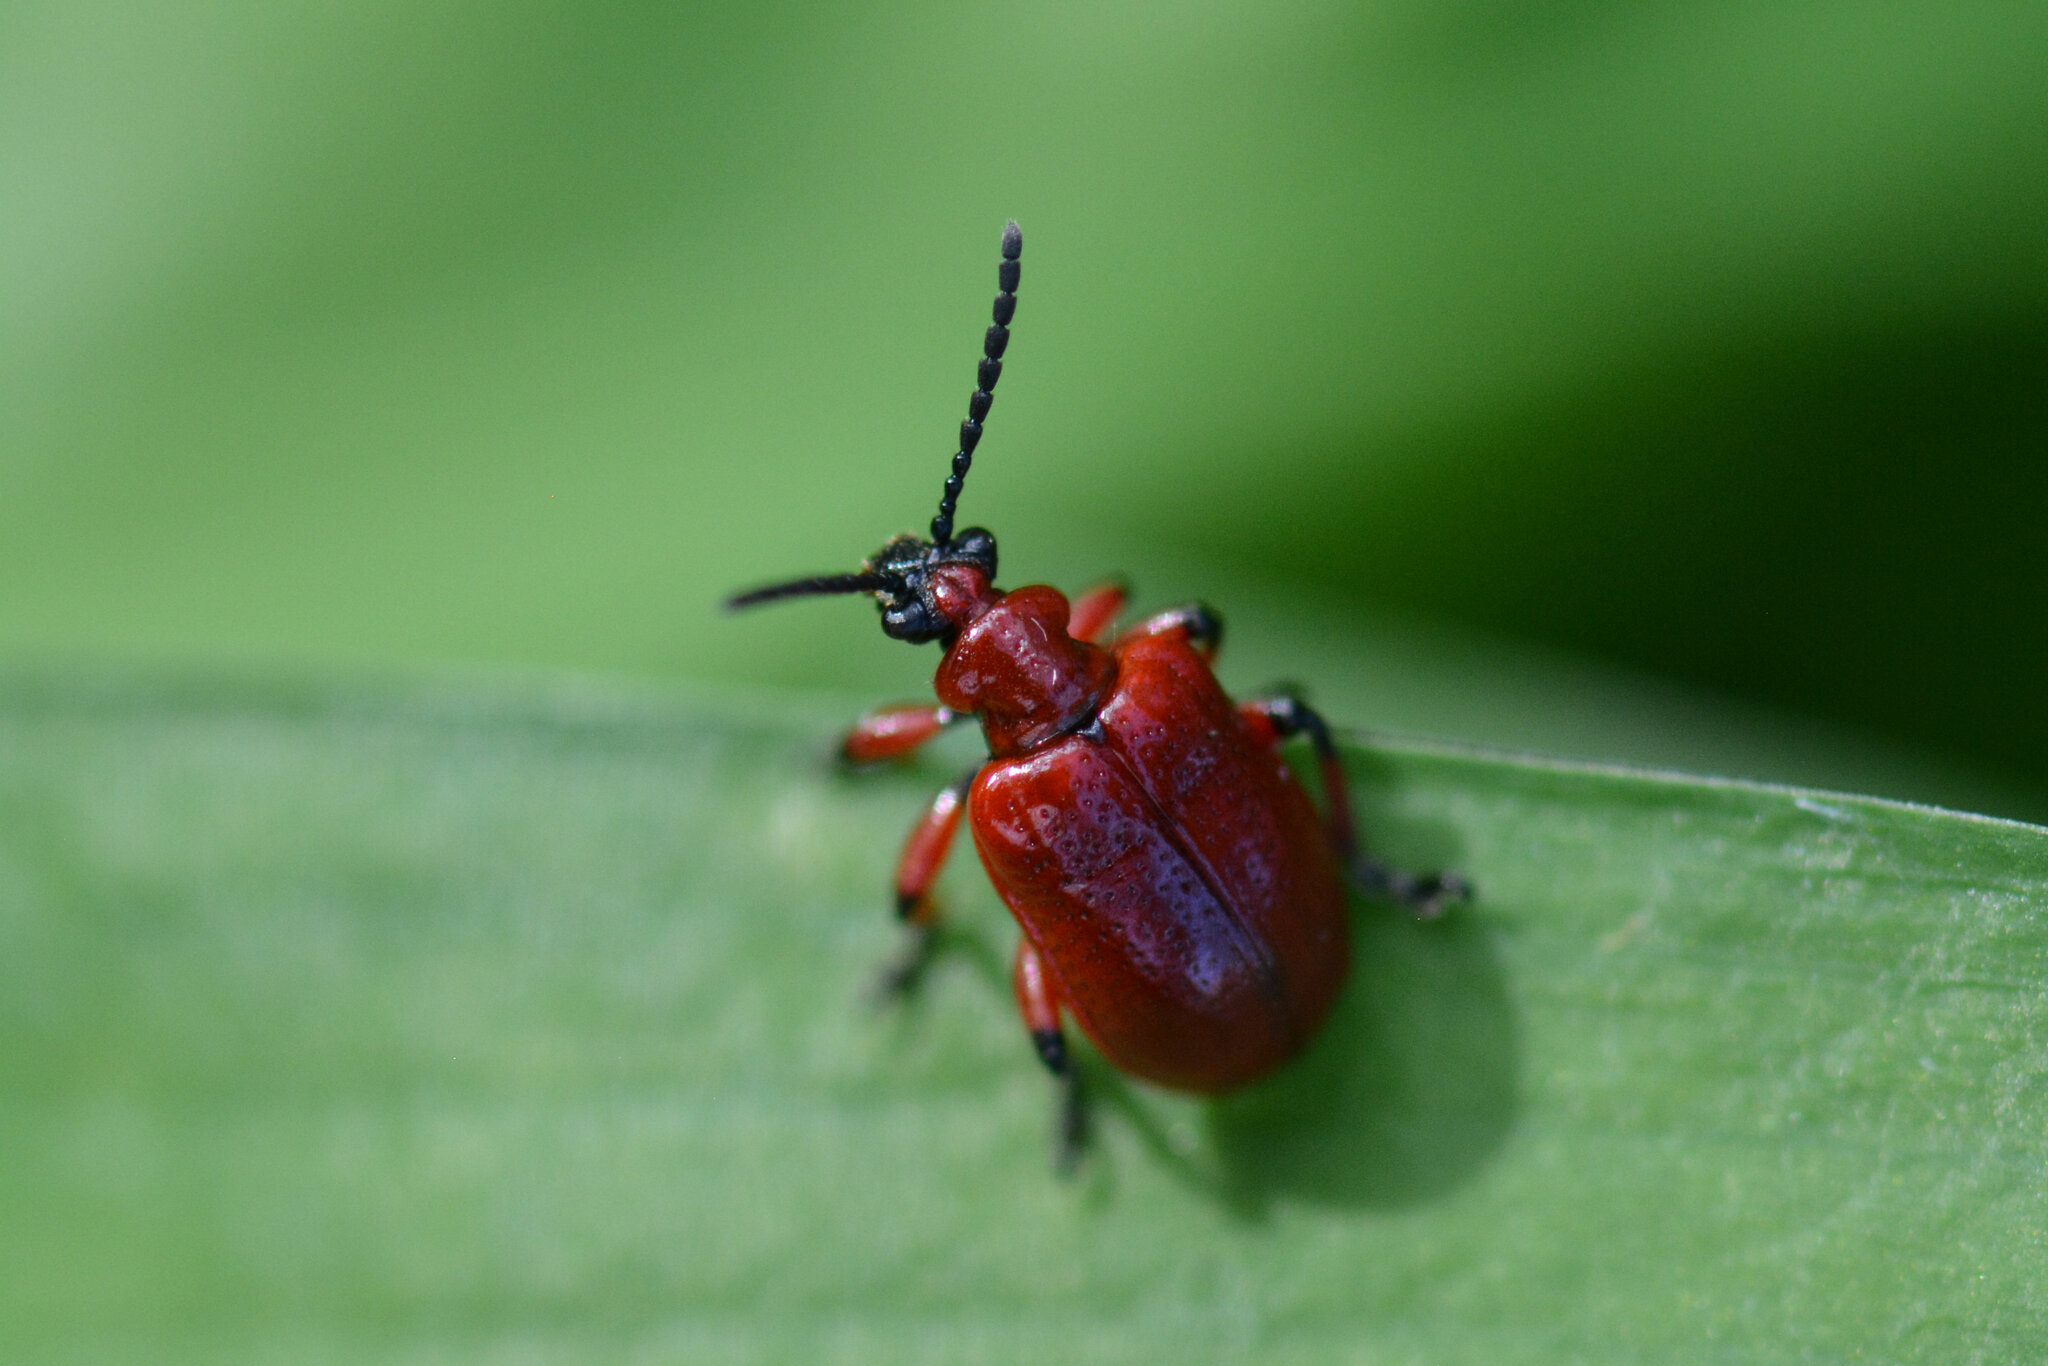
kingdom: Animalia
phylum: Arthropoda
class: Insecta
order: Coleoptera
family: Chrysomelidae
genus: Lilioceris
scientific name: Lilioceris merdigera
